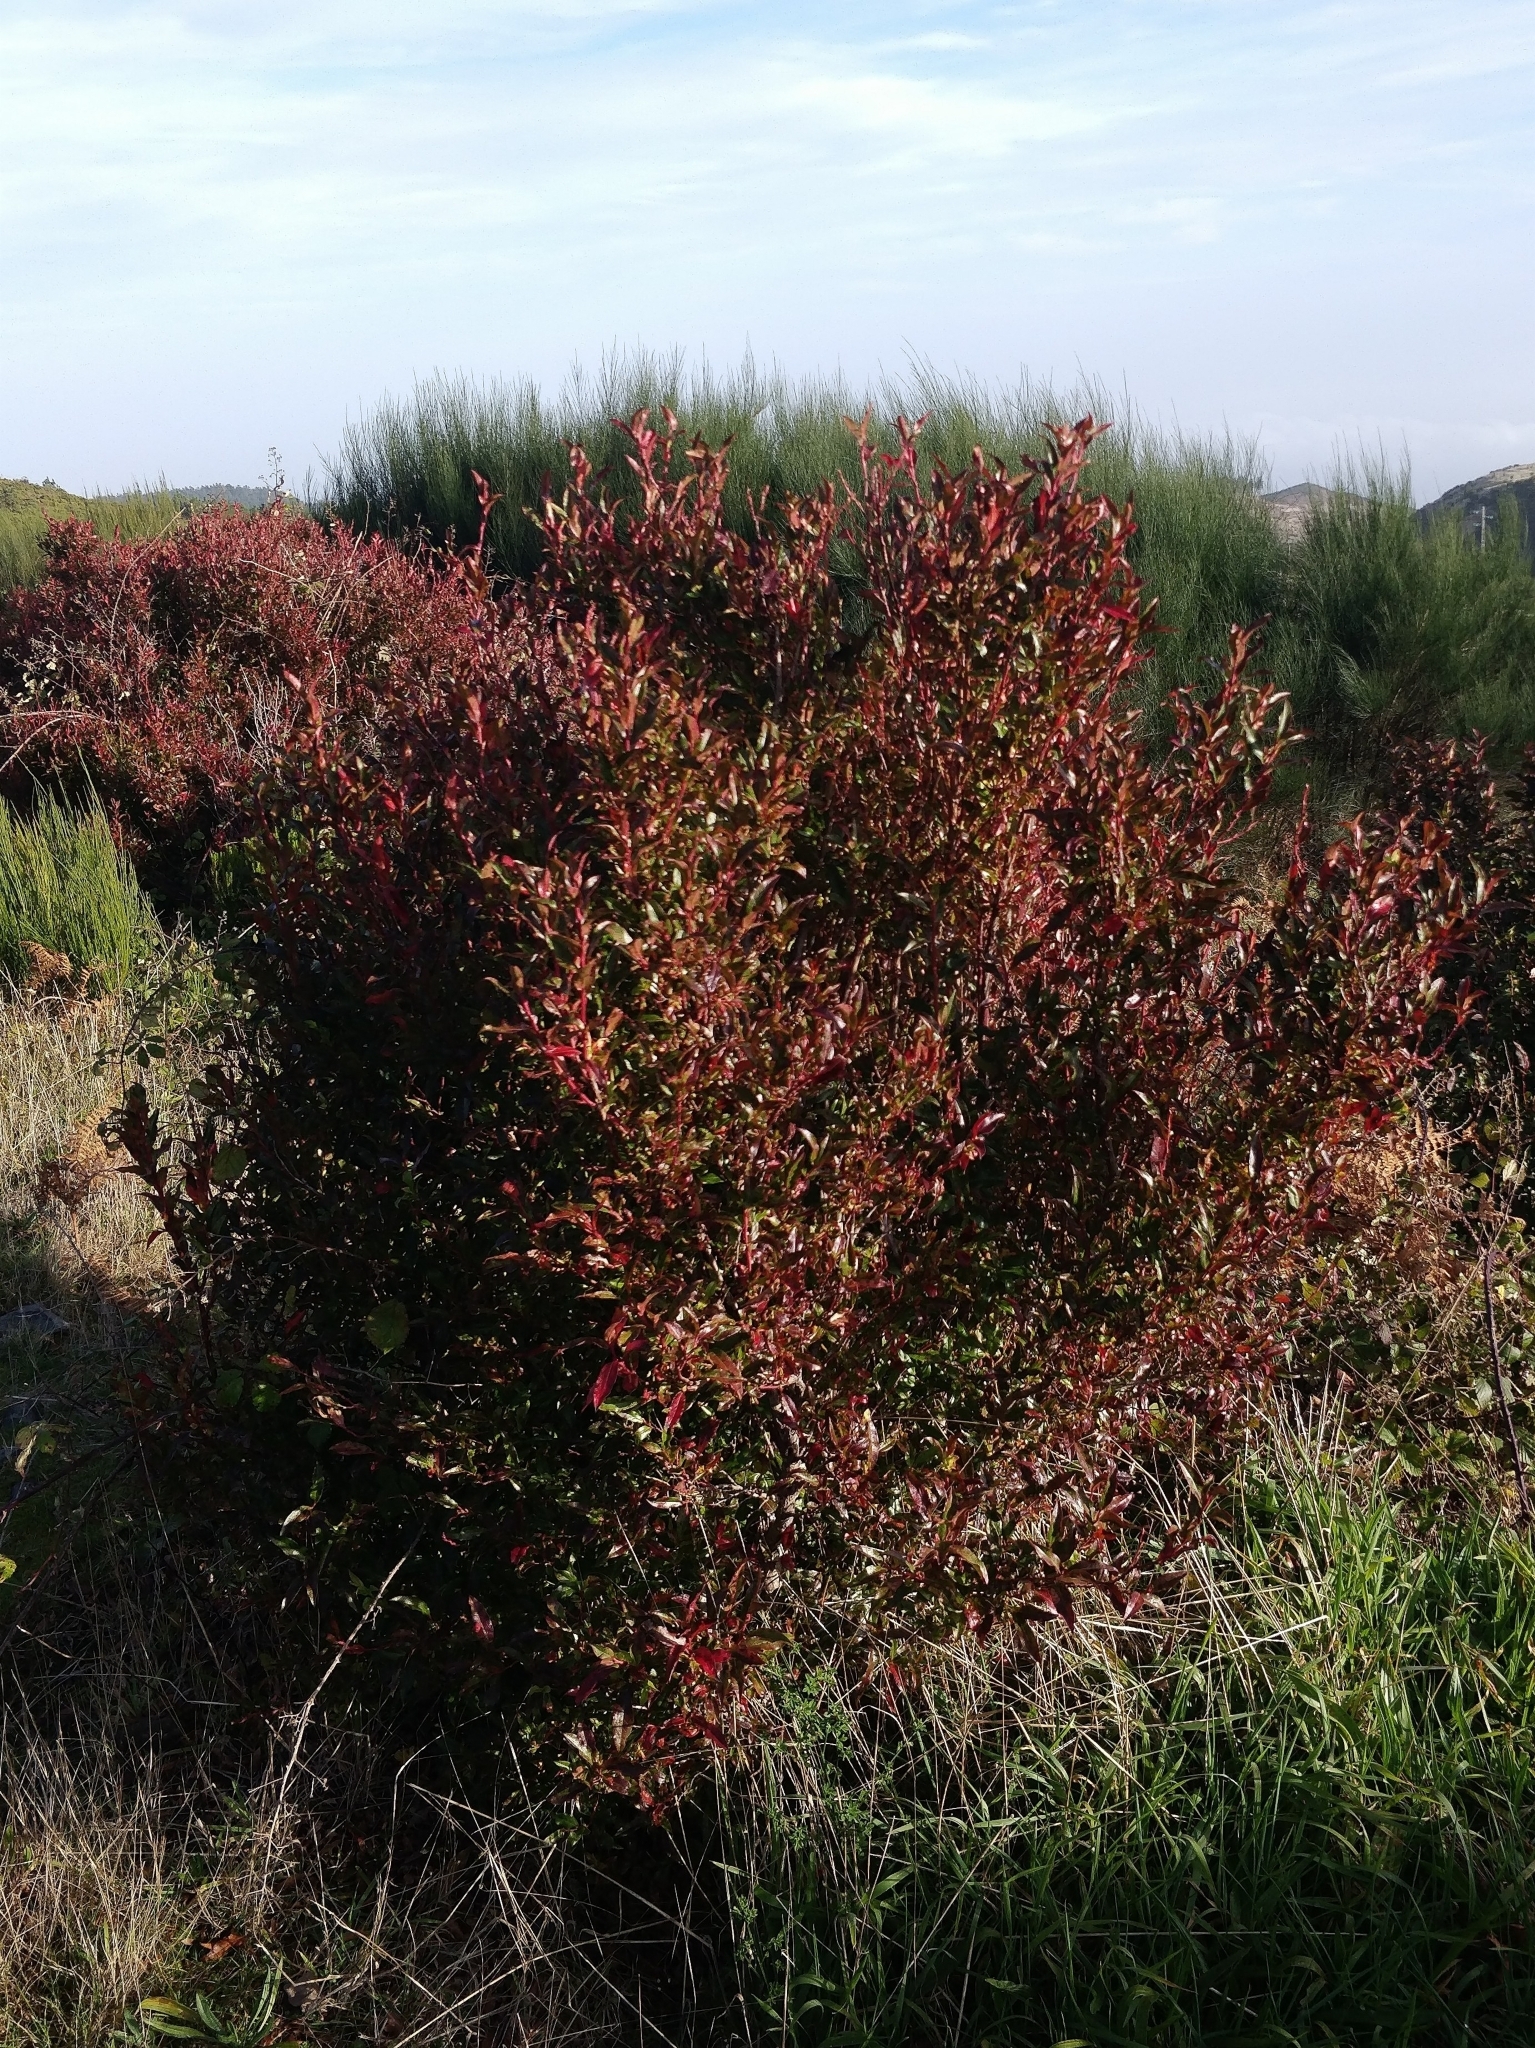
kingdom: Plantae
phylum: Tracheophyta
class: Magnoliopsida
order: Ericales
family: Ericaceae
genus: Vaccinium
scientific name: Vaccinium padifolium
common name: Madeiran blueberry
